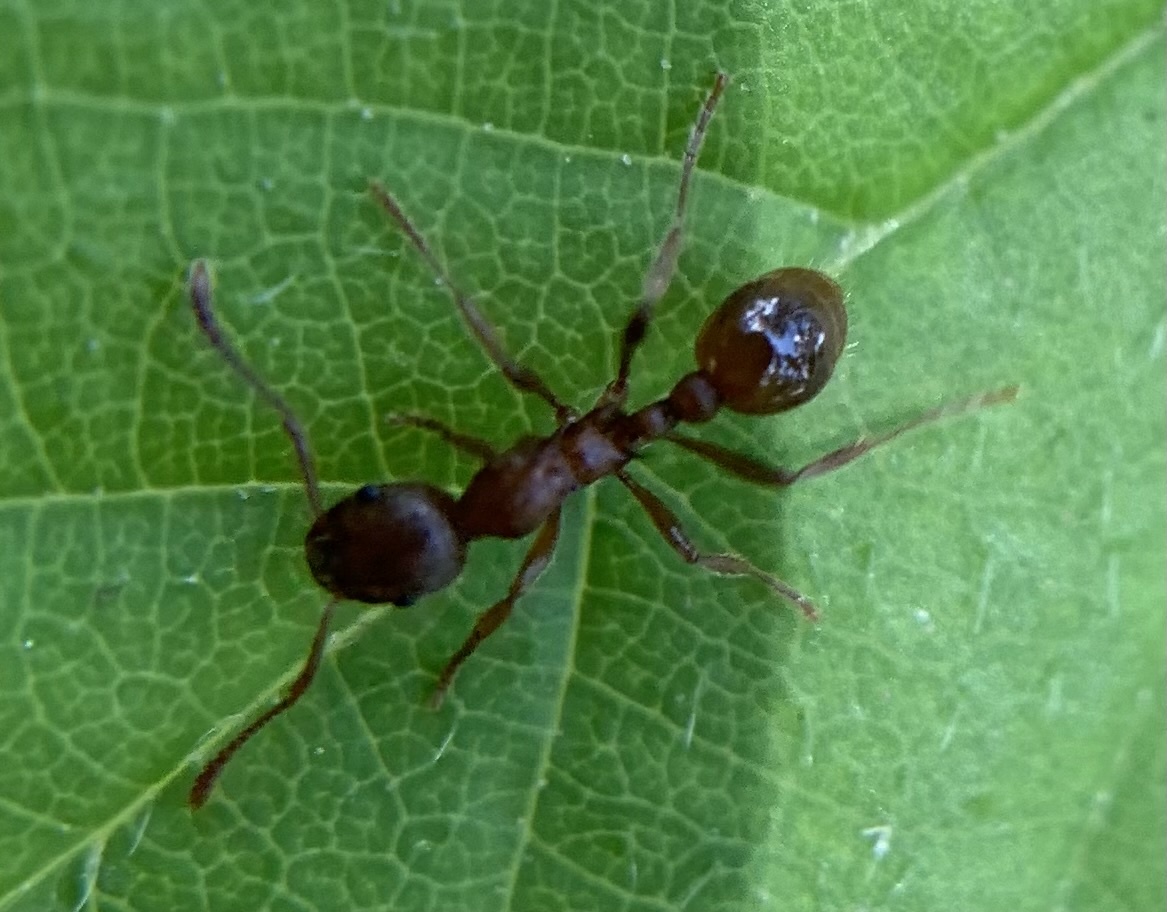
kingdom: Animalia
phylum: Arthropoda
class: Insecta
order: Hymenoptera
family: Formicidae
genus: Myrmica
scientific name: Myrmica rubra
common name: European fire ant
